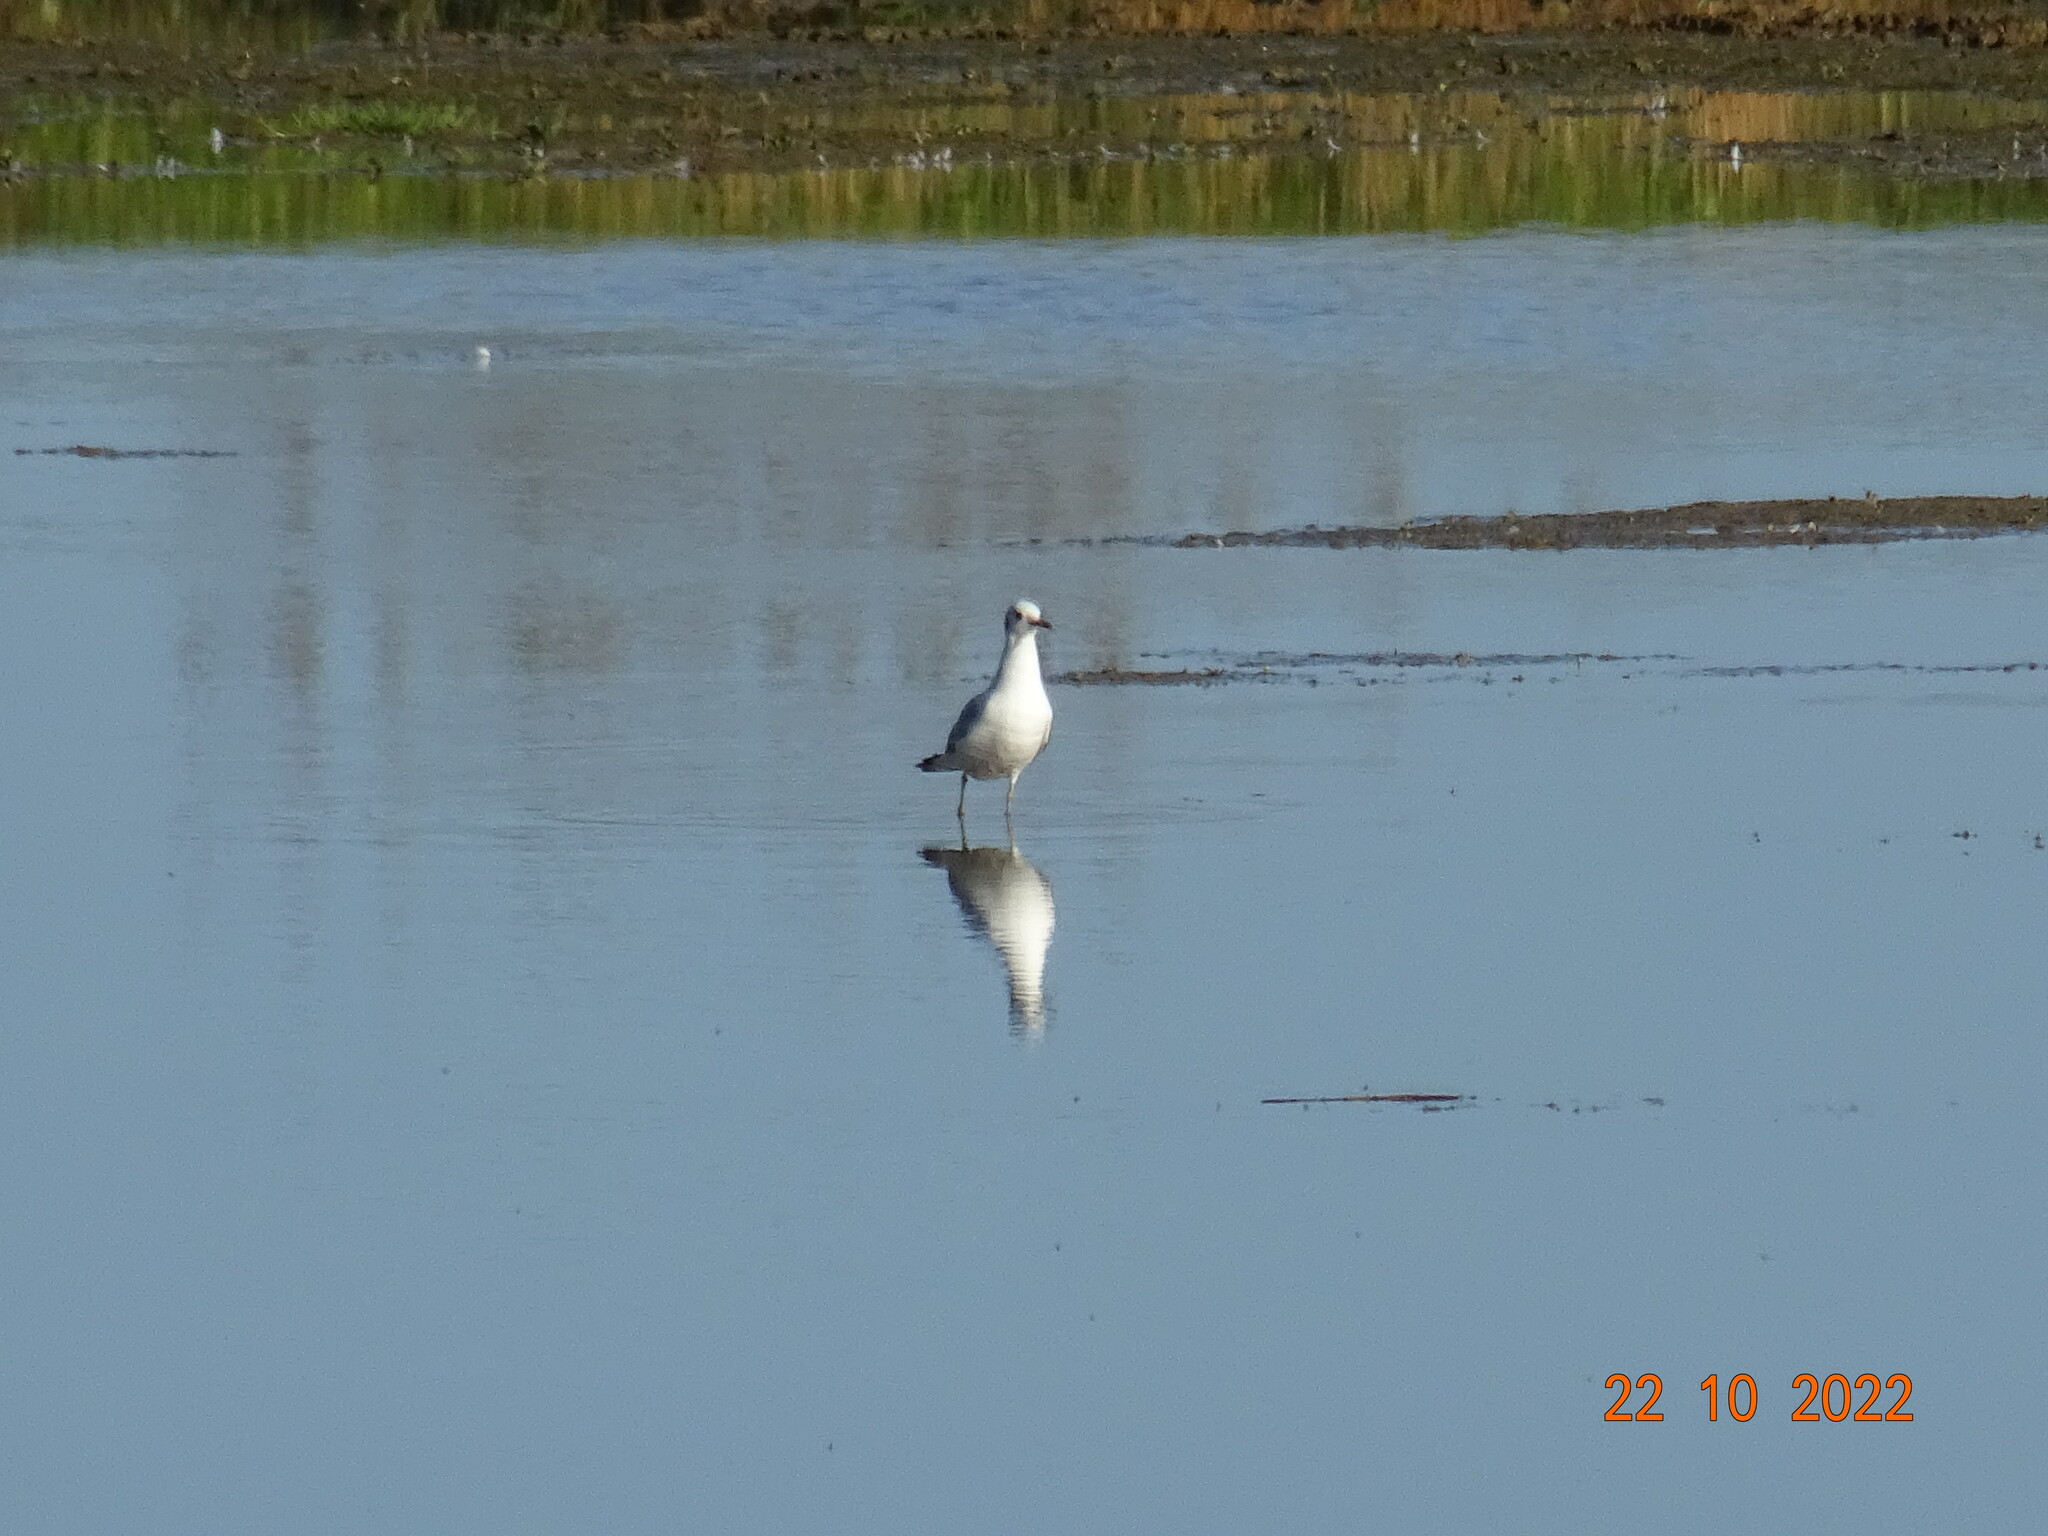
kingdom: Animalia
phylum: Chordata
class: Aves
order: Charadriiformes
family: Laridae
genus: Chroicocephalus
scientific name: Chroicocephalus ridibundus
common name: Black-headed gull
